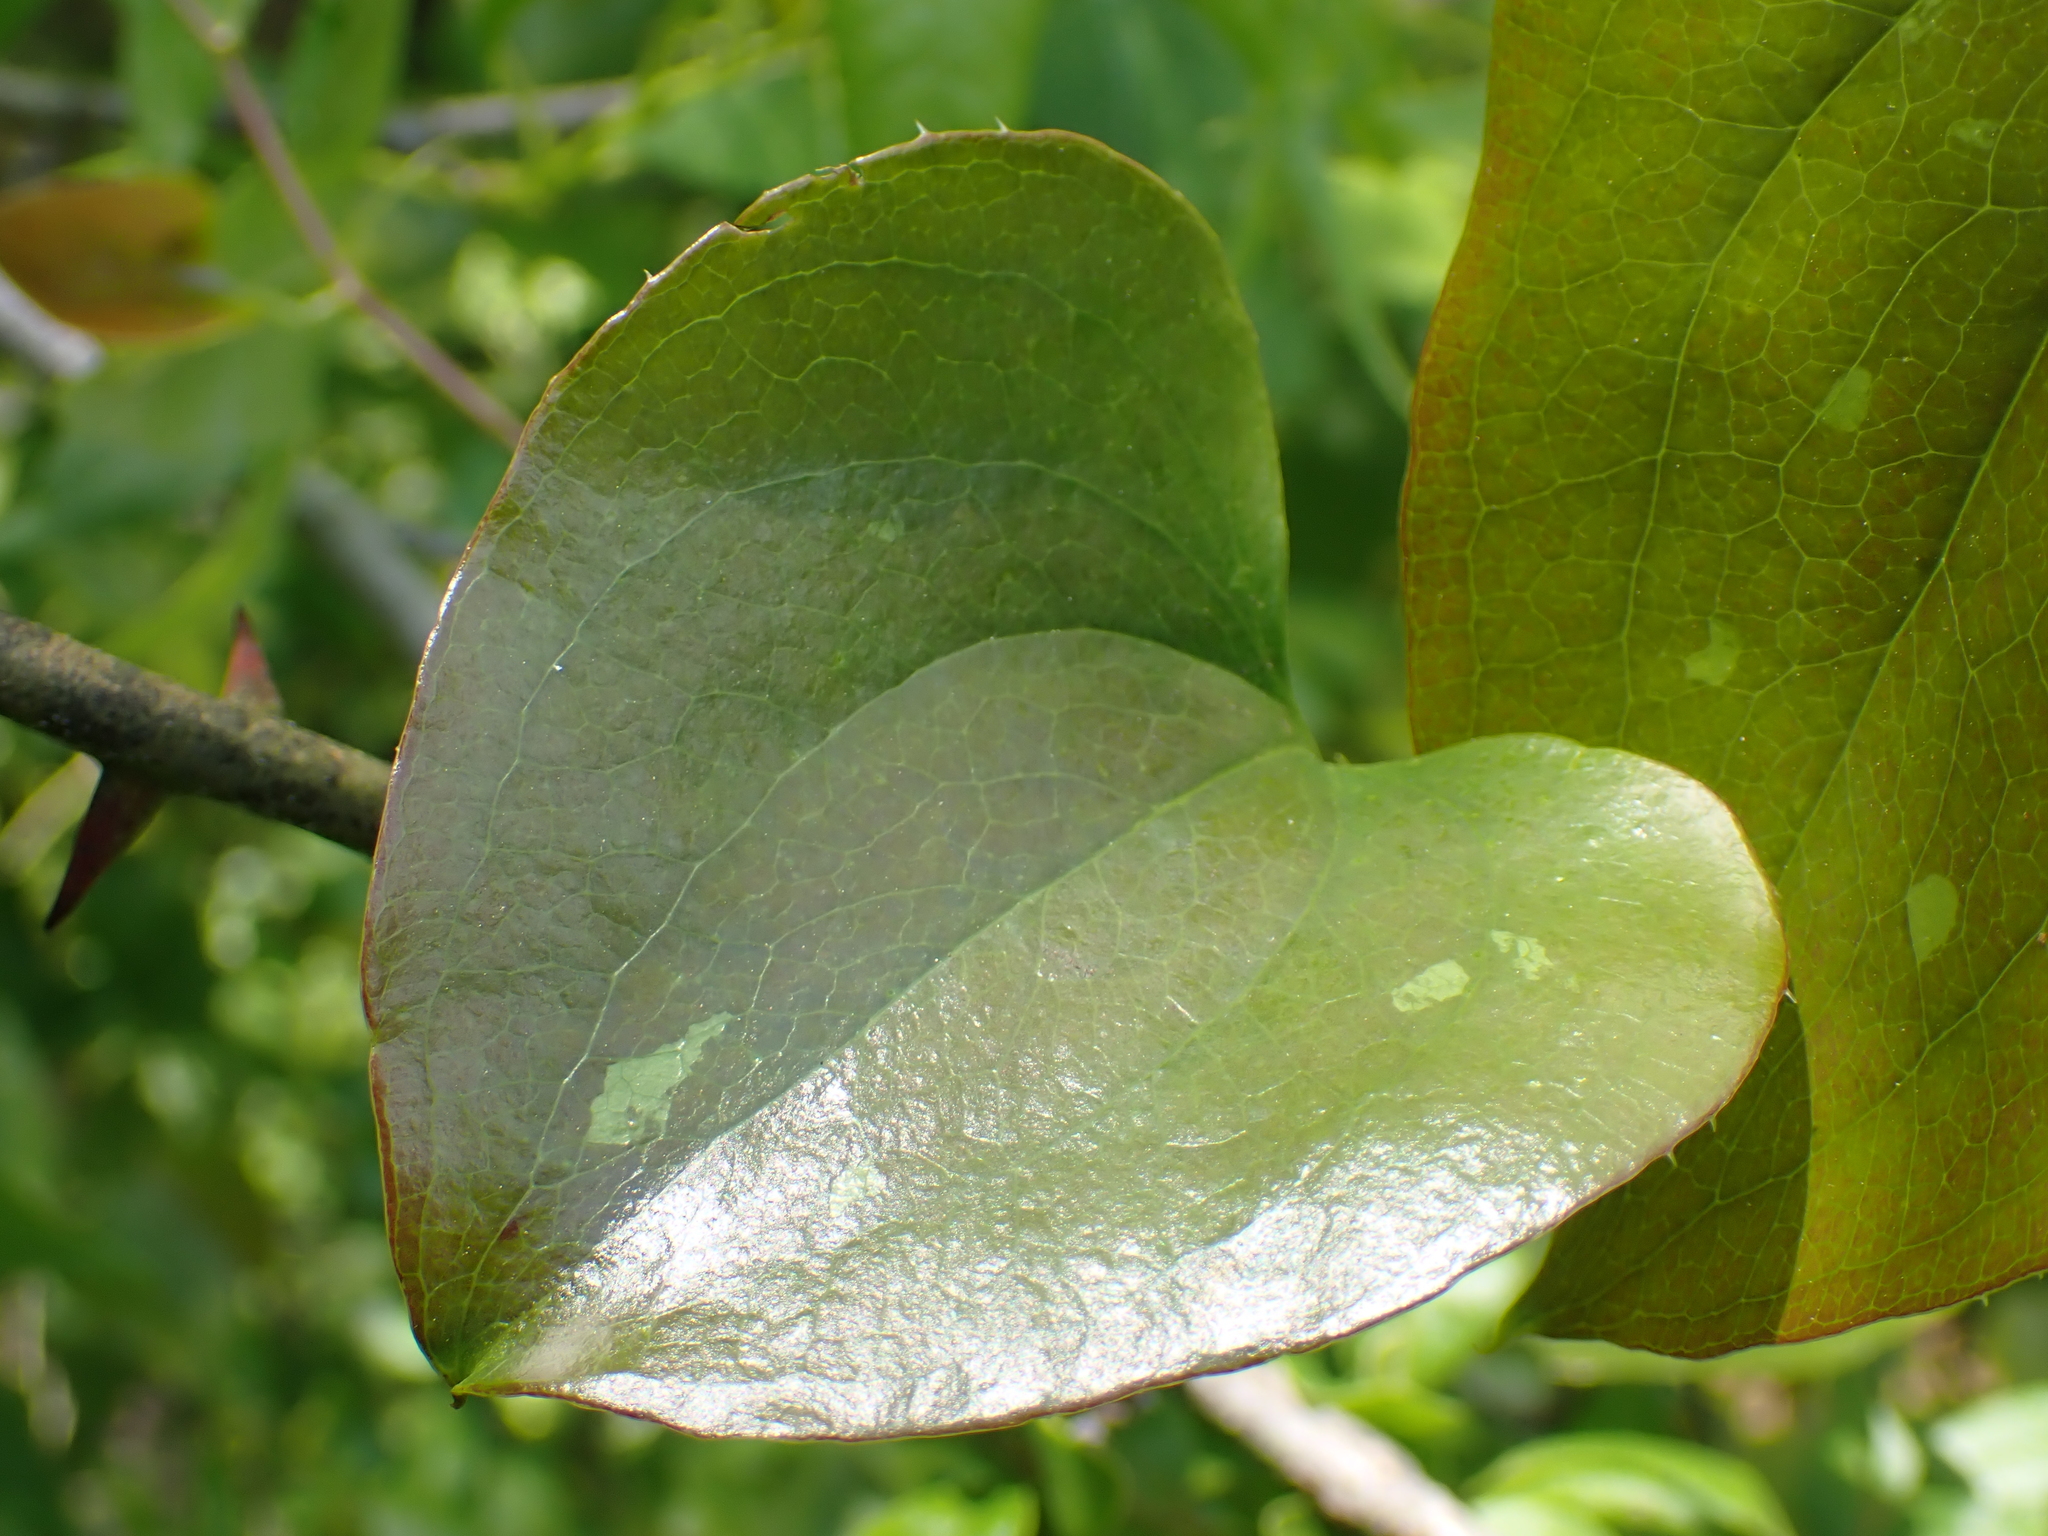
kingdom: Plantae
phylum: Tracheophyta
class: Liliopsida
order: Liliales
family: Smilacaceae
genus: Smilax
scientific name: Smilax bona-nox
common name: Catbrier
